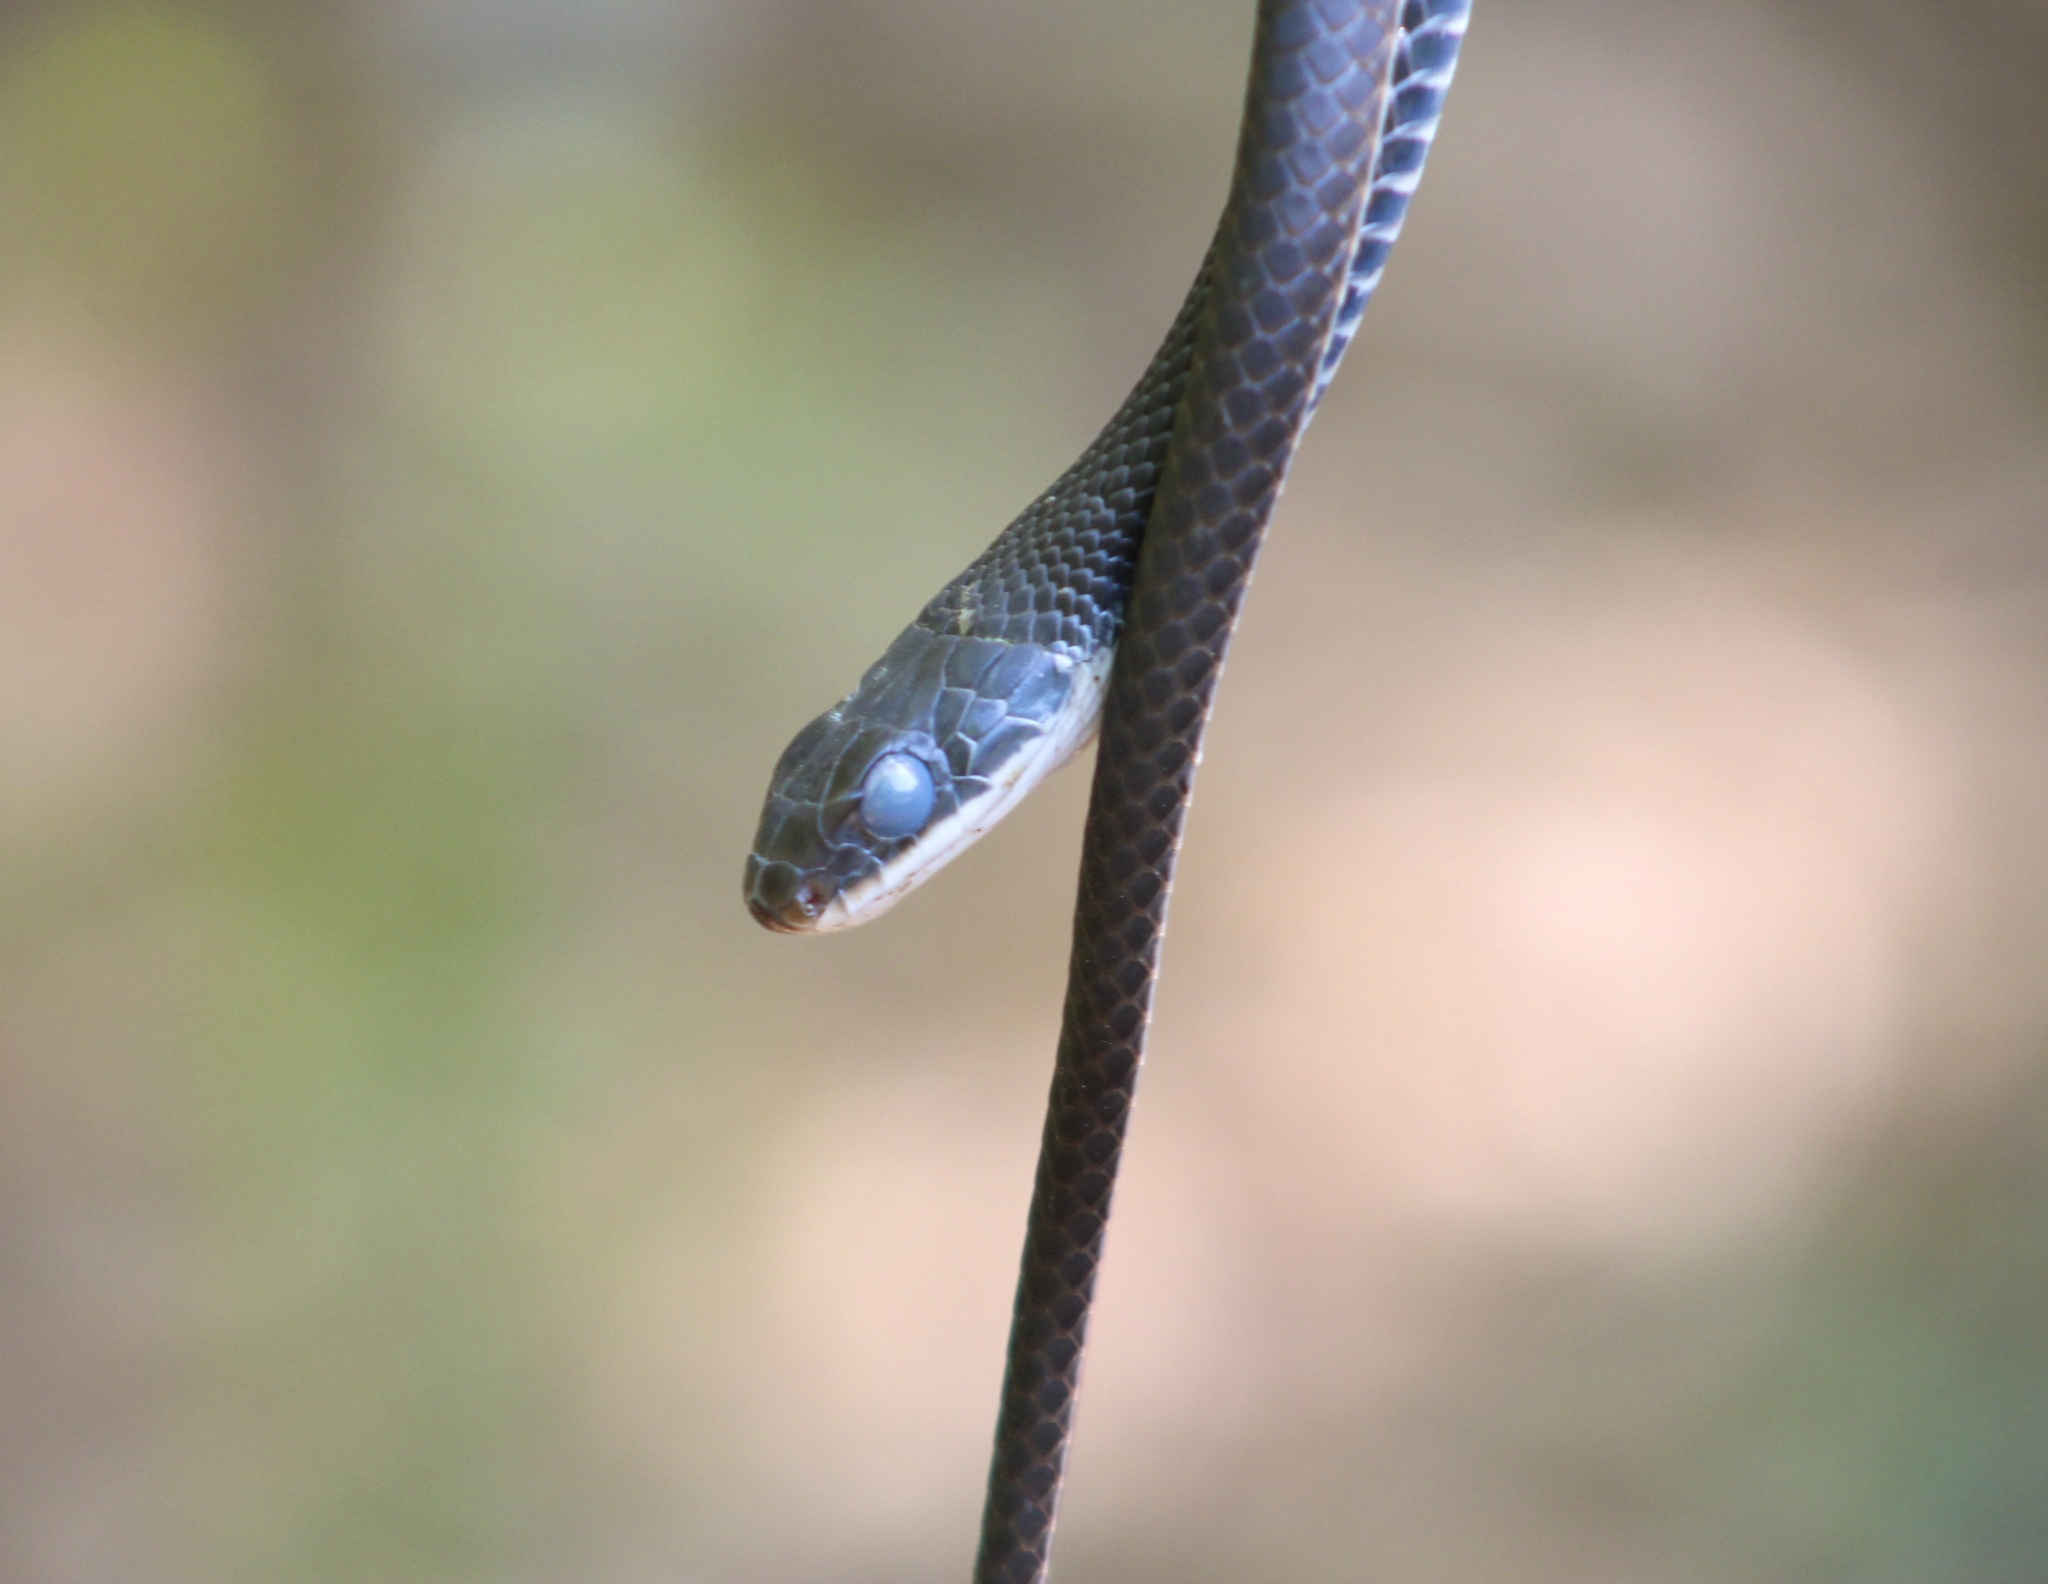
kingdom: Animalia
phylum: Chordata
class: Squamata
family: Colubridae
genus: Coluber
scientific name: Coluber constrictor
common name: Eastern racer
